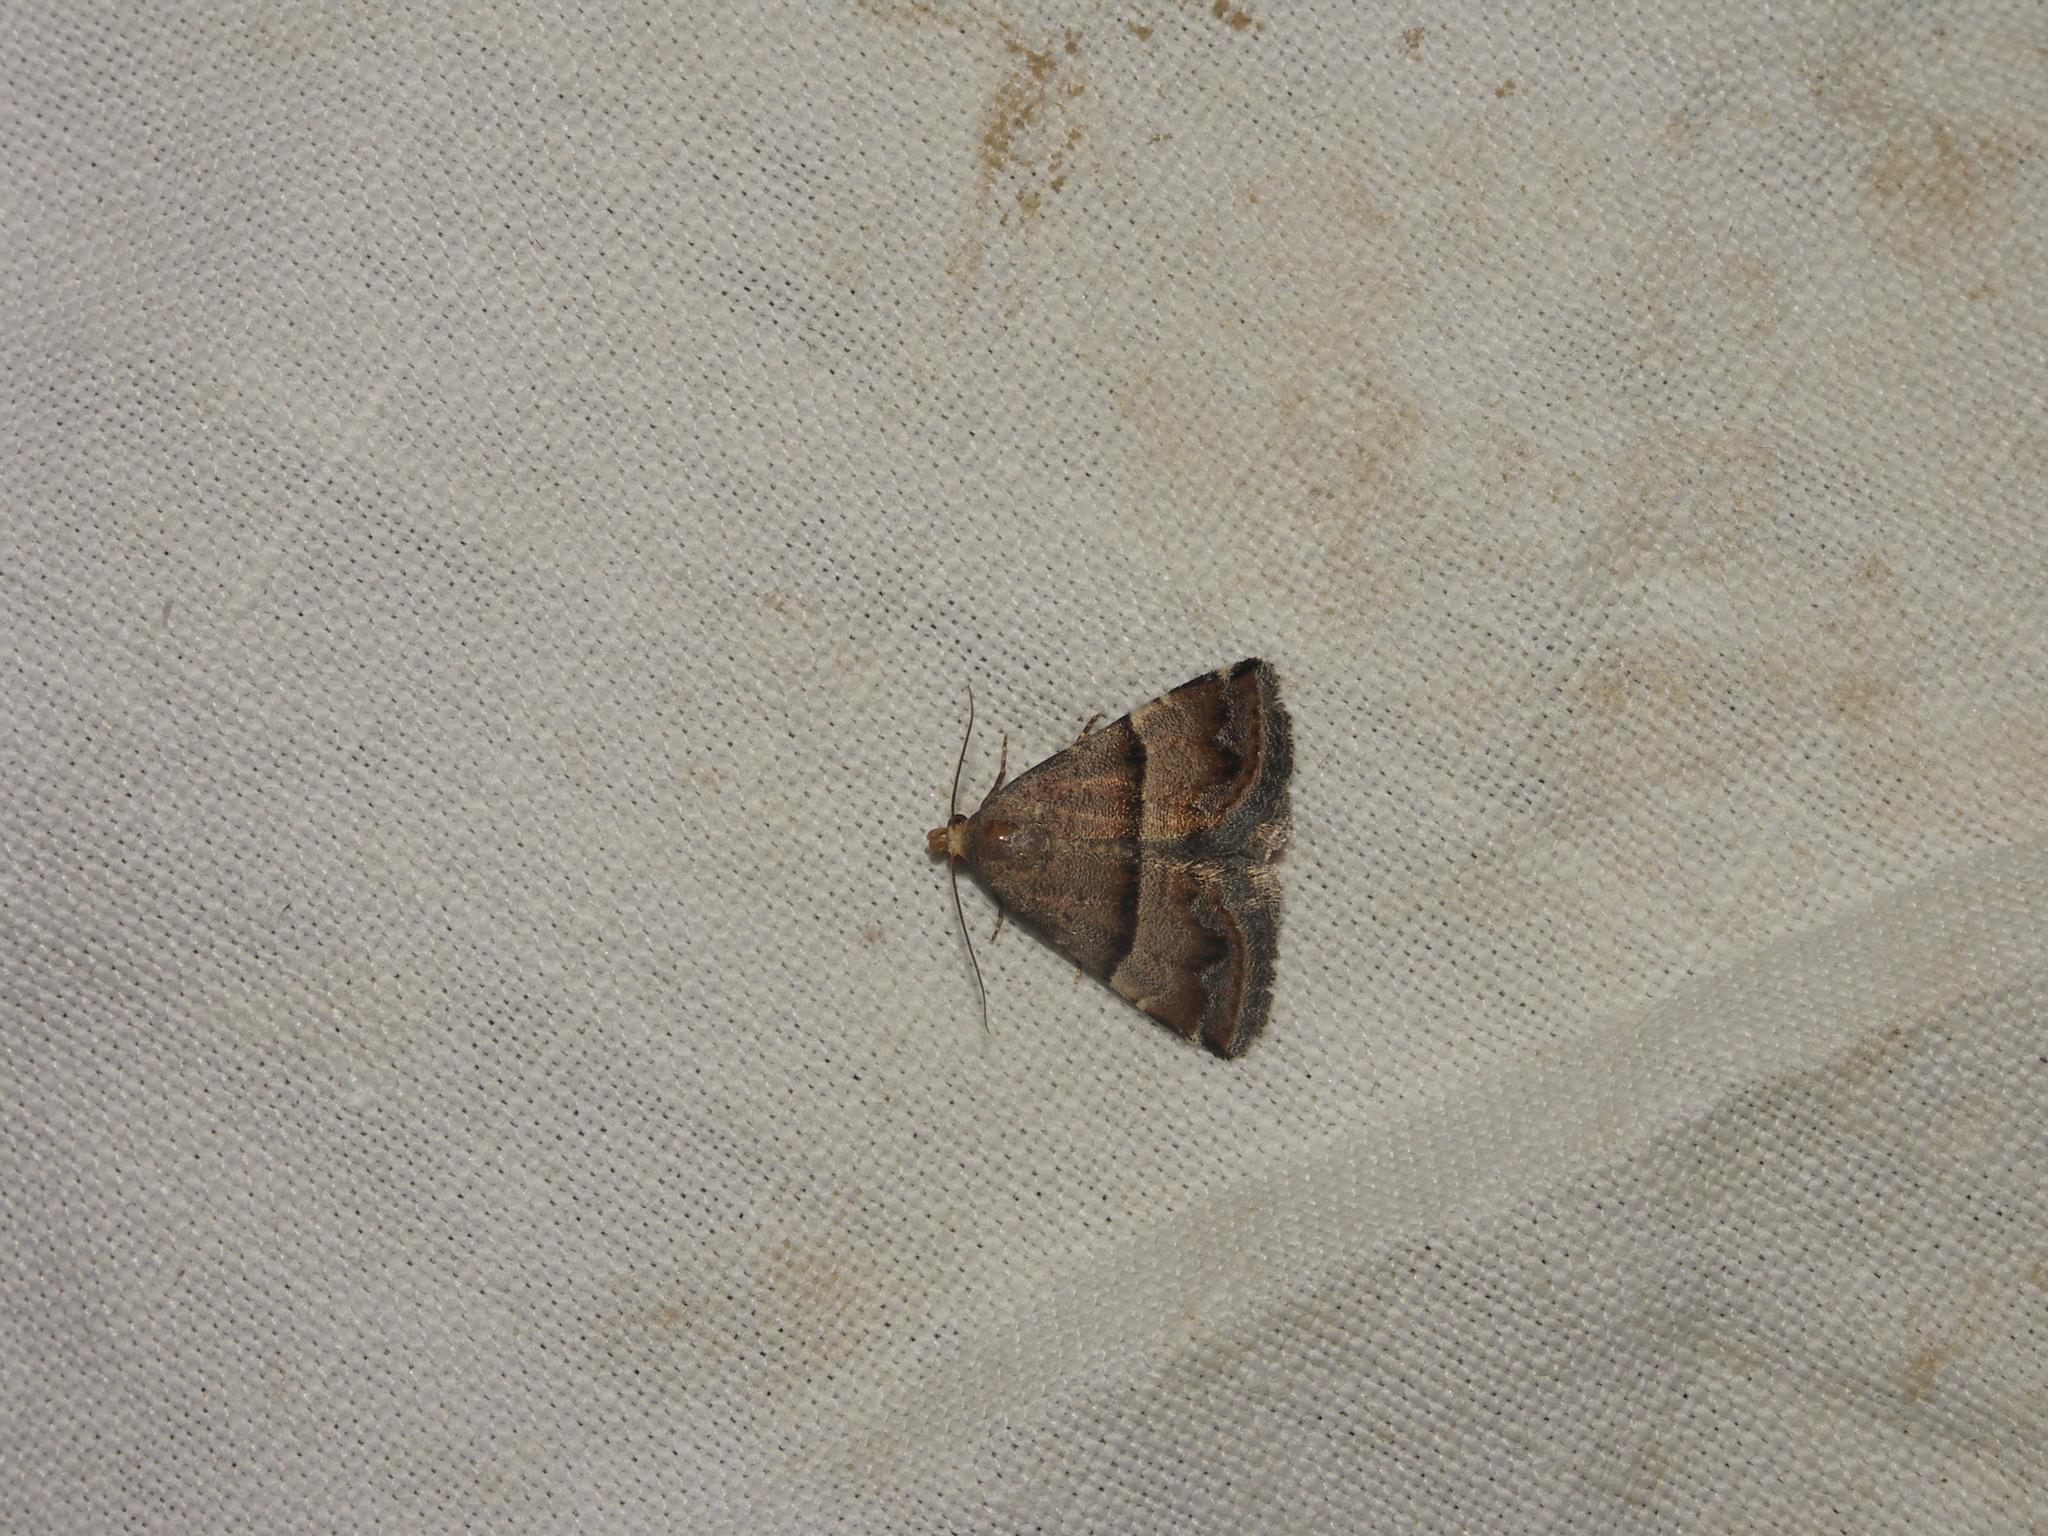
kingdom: Animalia
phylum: Arthropoda
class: Insecta
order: Lepidoptera
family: Noctuidae
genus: Odice
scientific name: Odice jucunda
